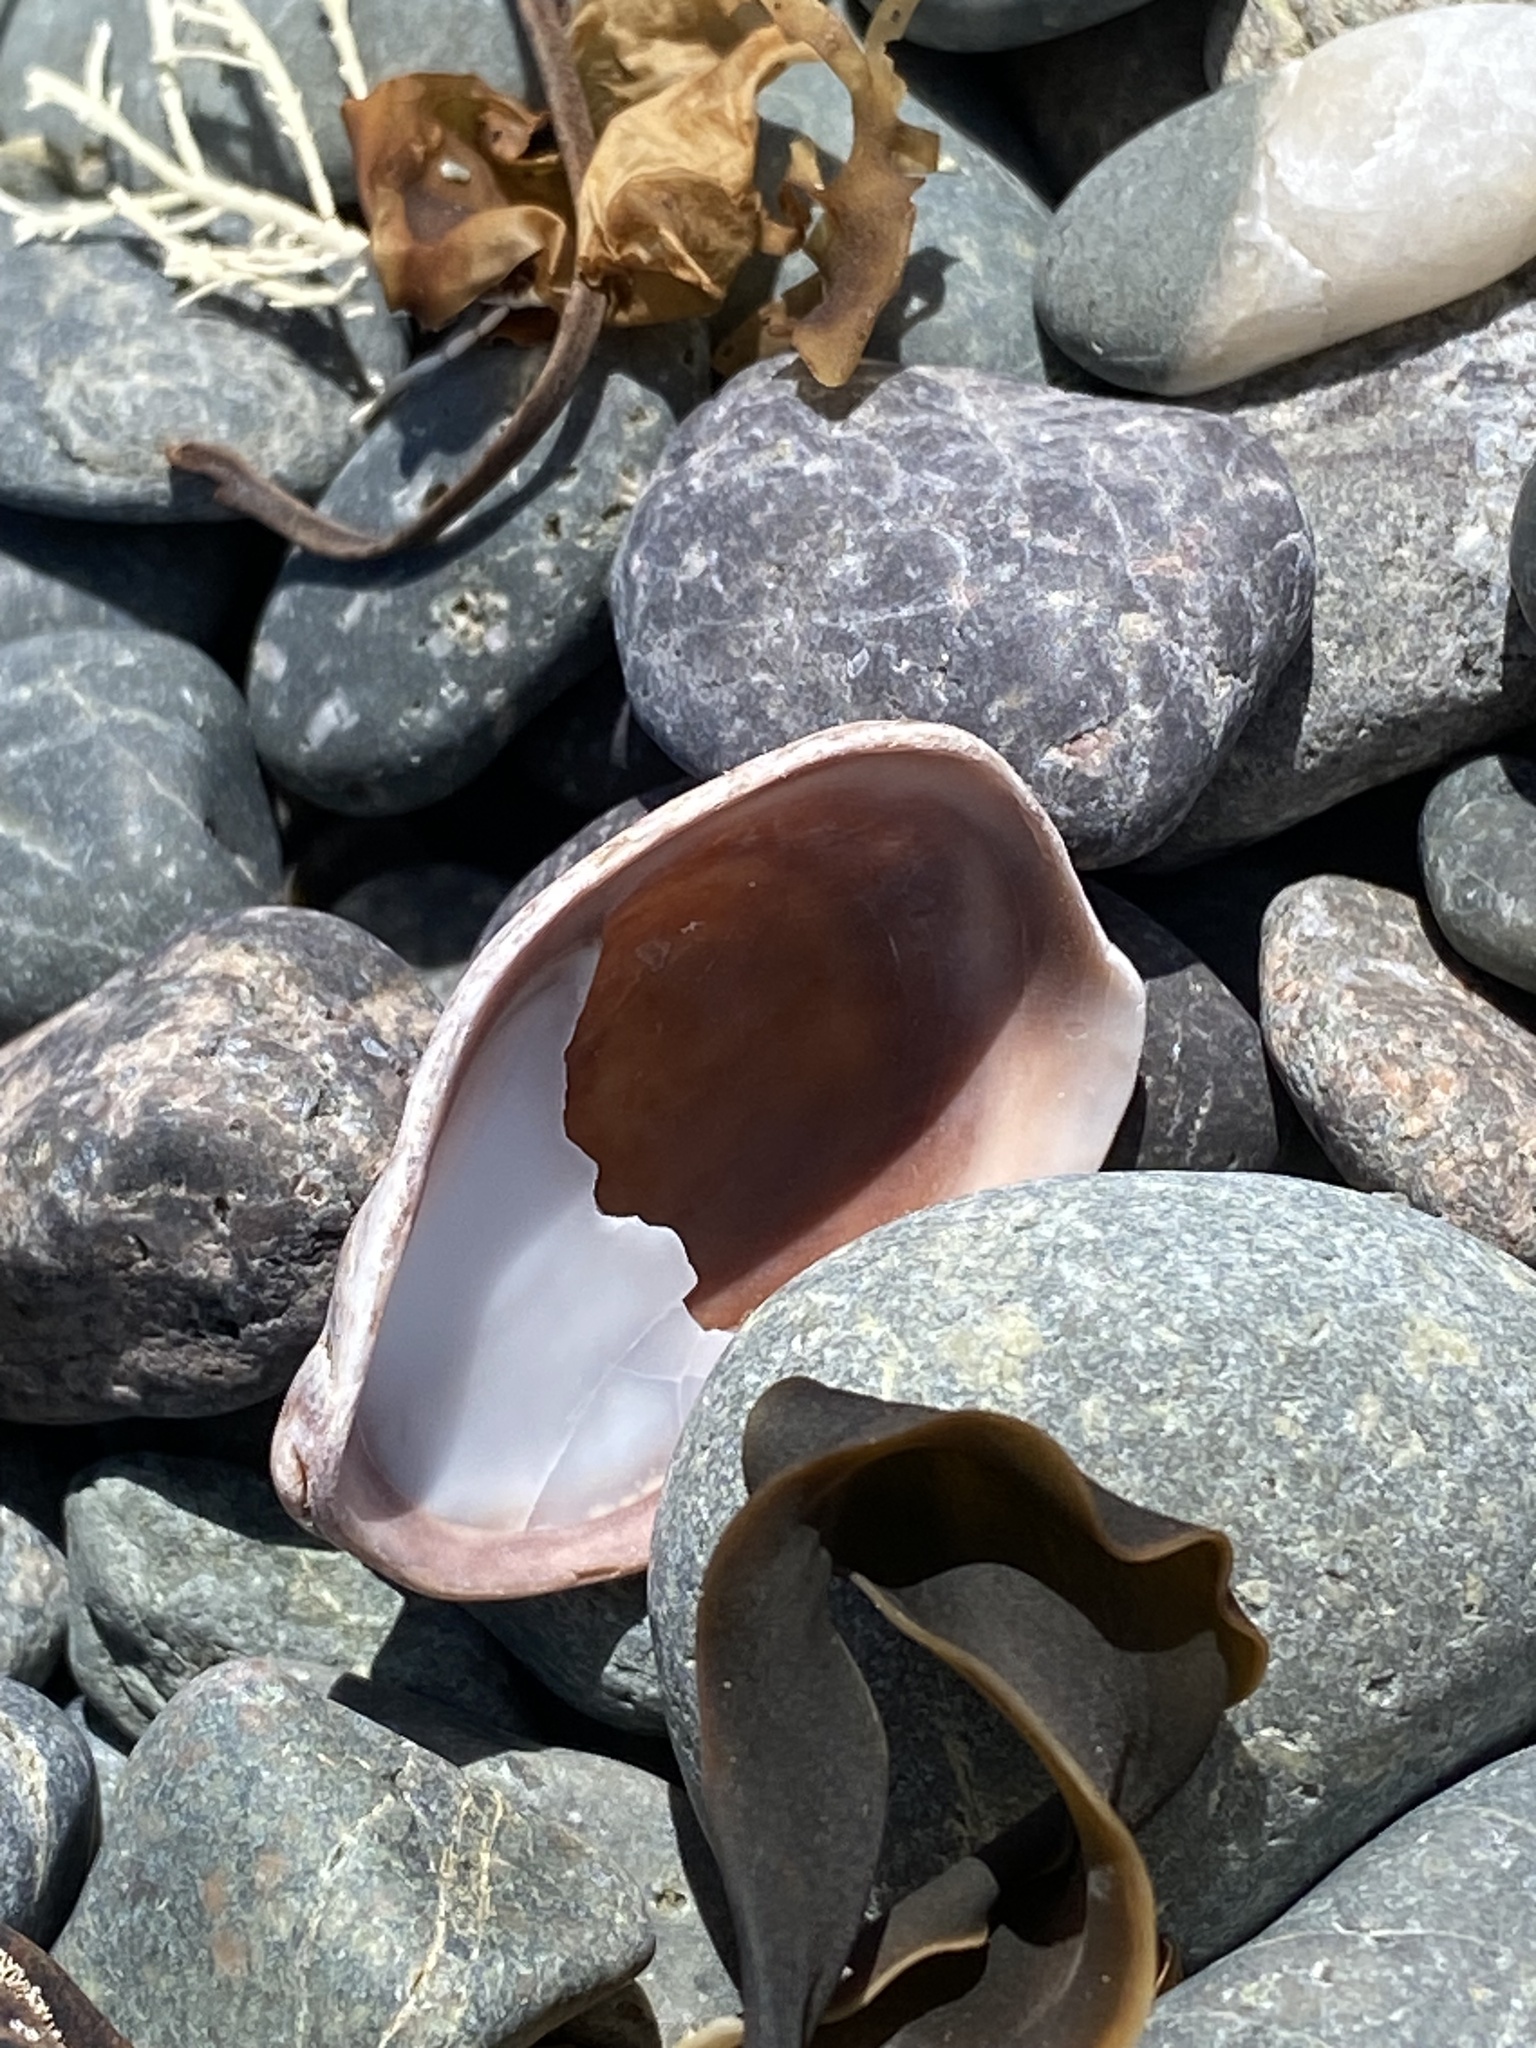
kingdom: Animalia
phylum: Mollusca
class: Gastropoda
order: Littorinimorpha
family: Calyptraeidae
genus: Crepidula
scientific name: Crepidula fornicata
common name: Slipper limpet
